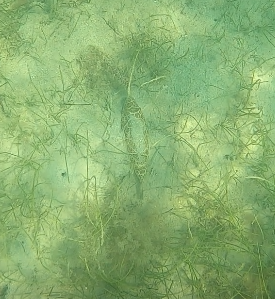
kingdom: Animalia
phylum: Chordata
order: Tetraodontiformes
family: Tetraodontidae
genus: Sphoeroides
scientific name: Sphoeroides testudineus
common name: Checkered puffer
